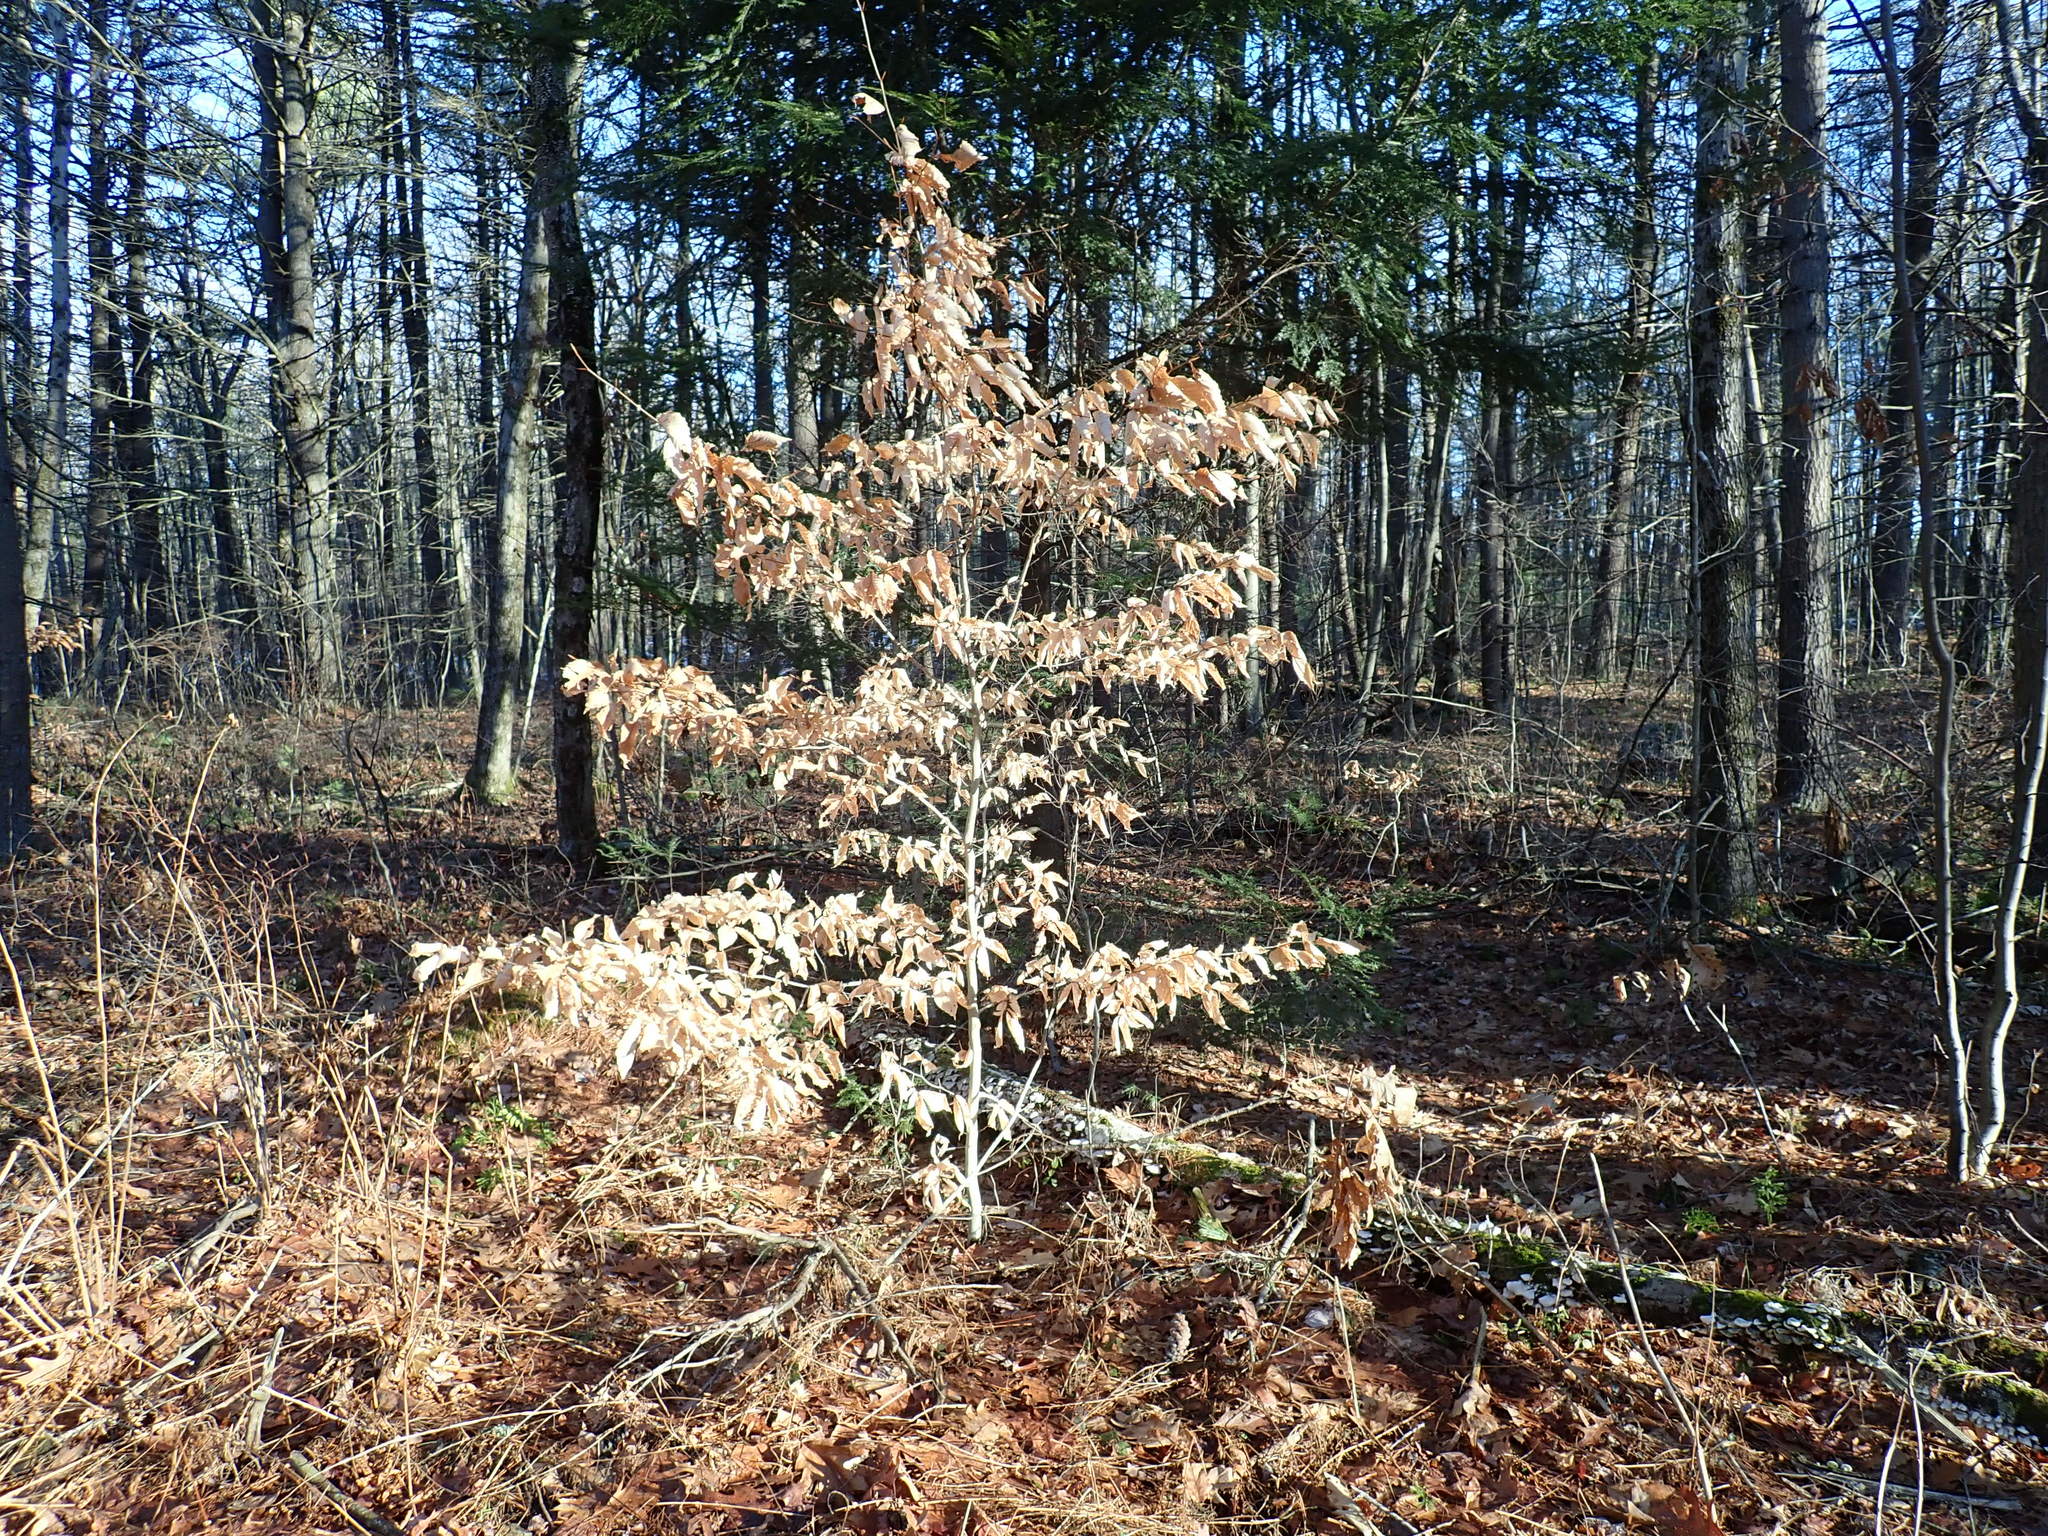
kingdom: Plantae
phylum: Tracheophyta
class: Magnoliopsida
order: Fagales
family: Fagaceae
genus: Fagus
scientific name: Fagus grandifolia
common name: American beech
